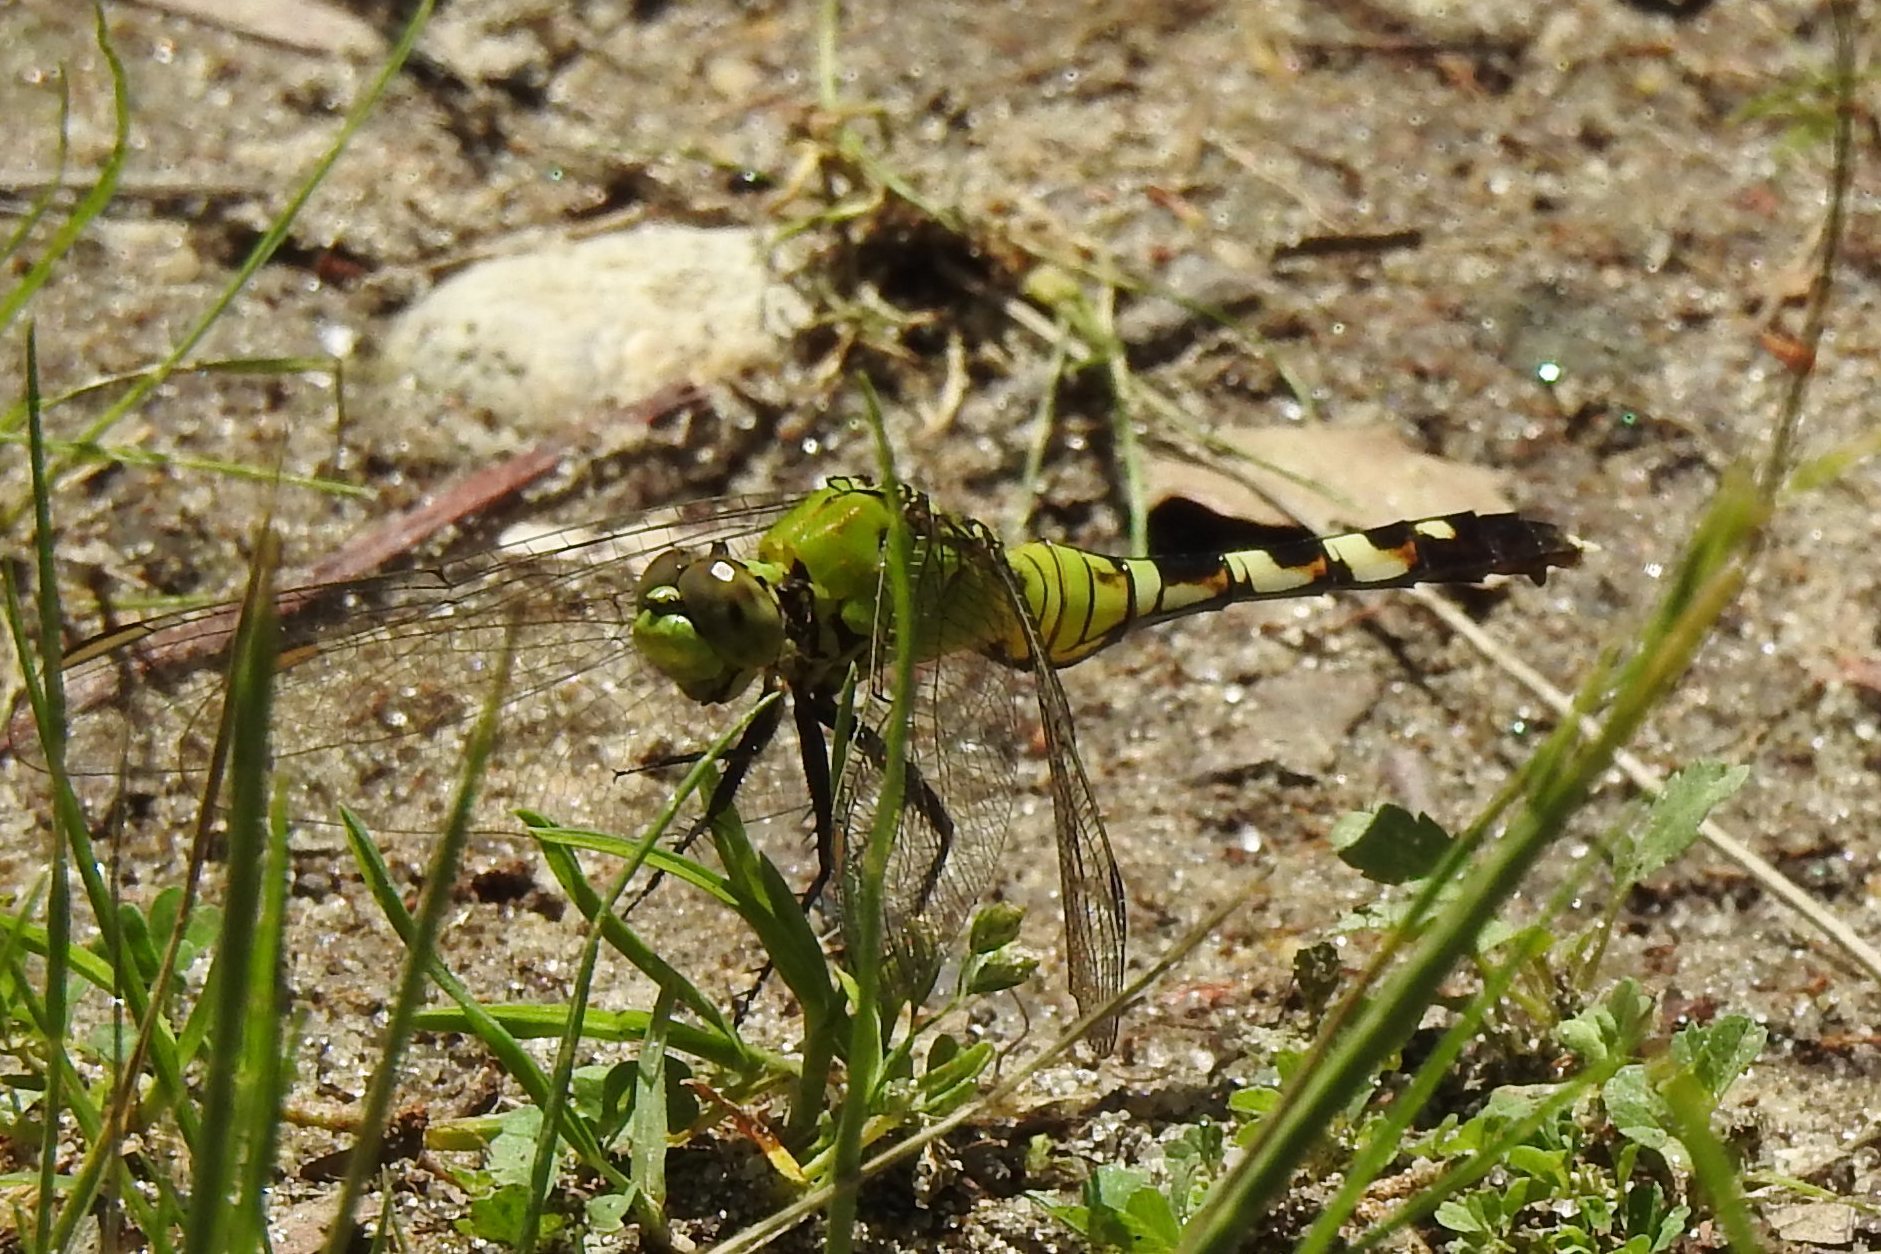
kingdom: Animalia
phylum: Arthropoda
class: Insecta
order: Odonata
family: Libellulidae
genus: Erythemis
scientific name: Erythemis simplicicollis
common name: Eastern pondhawk
